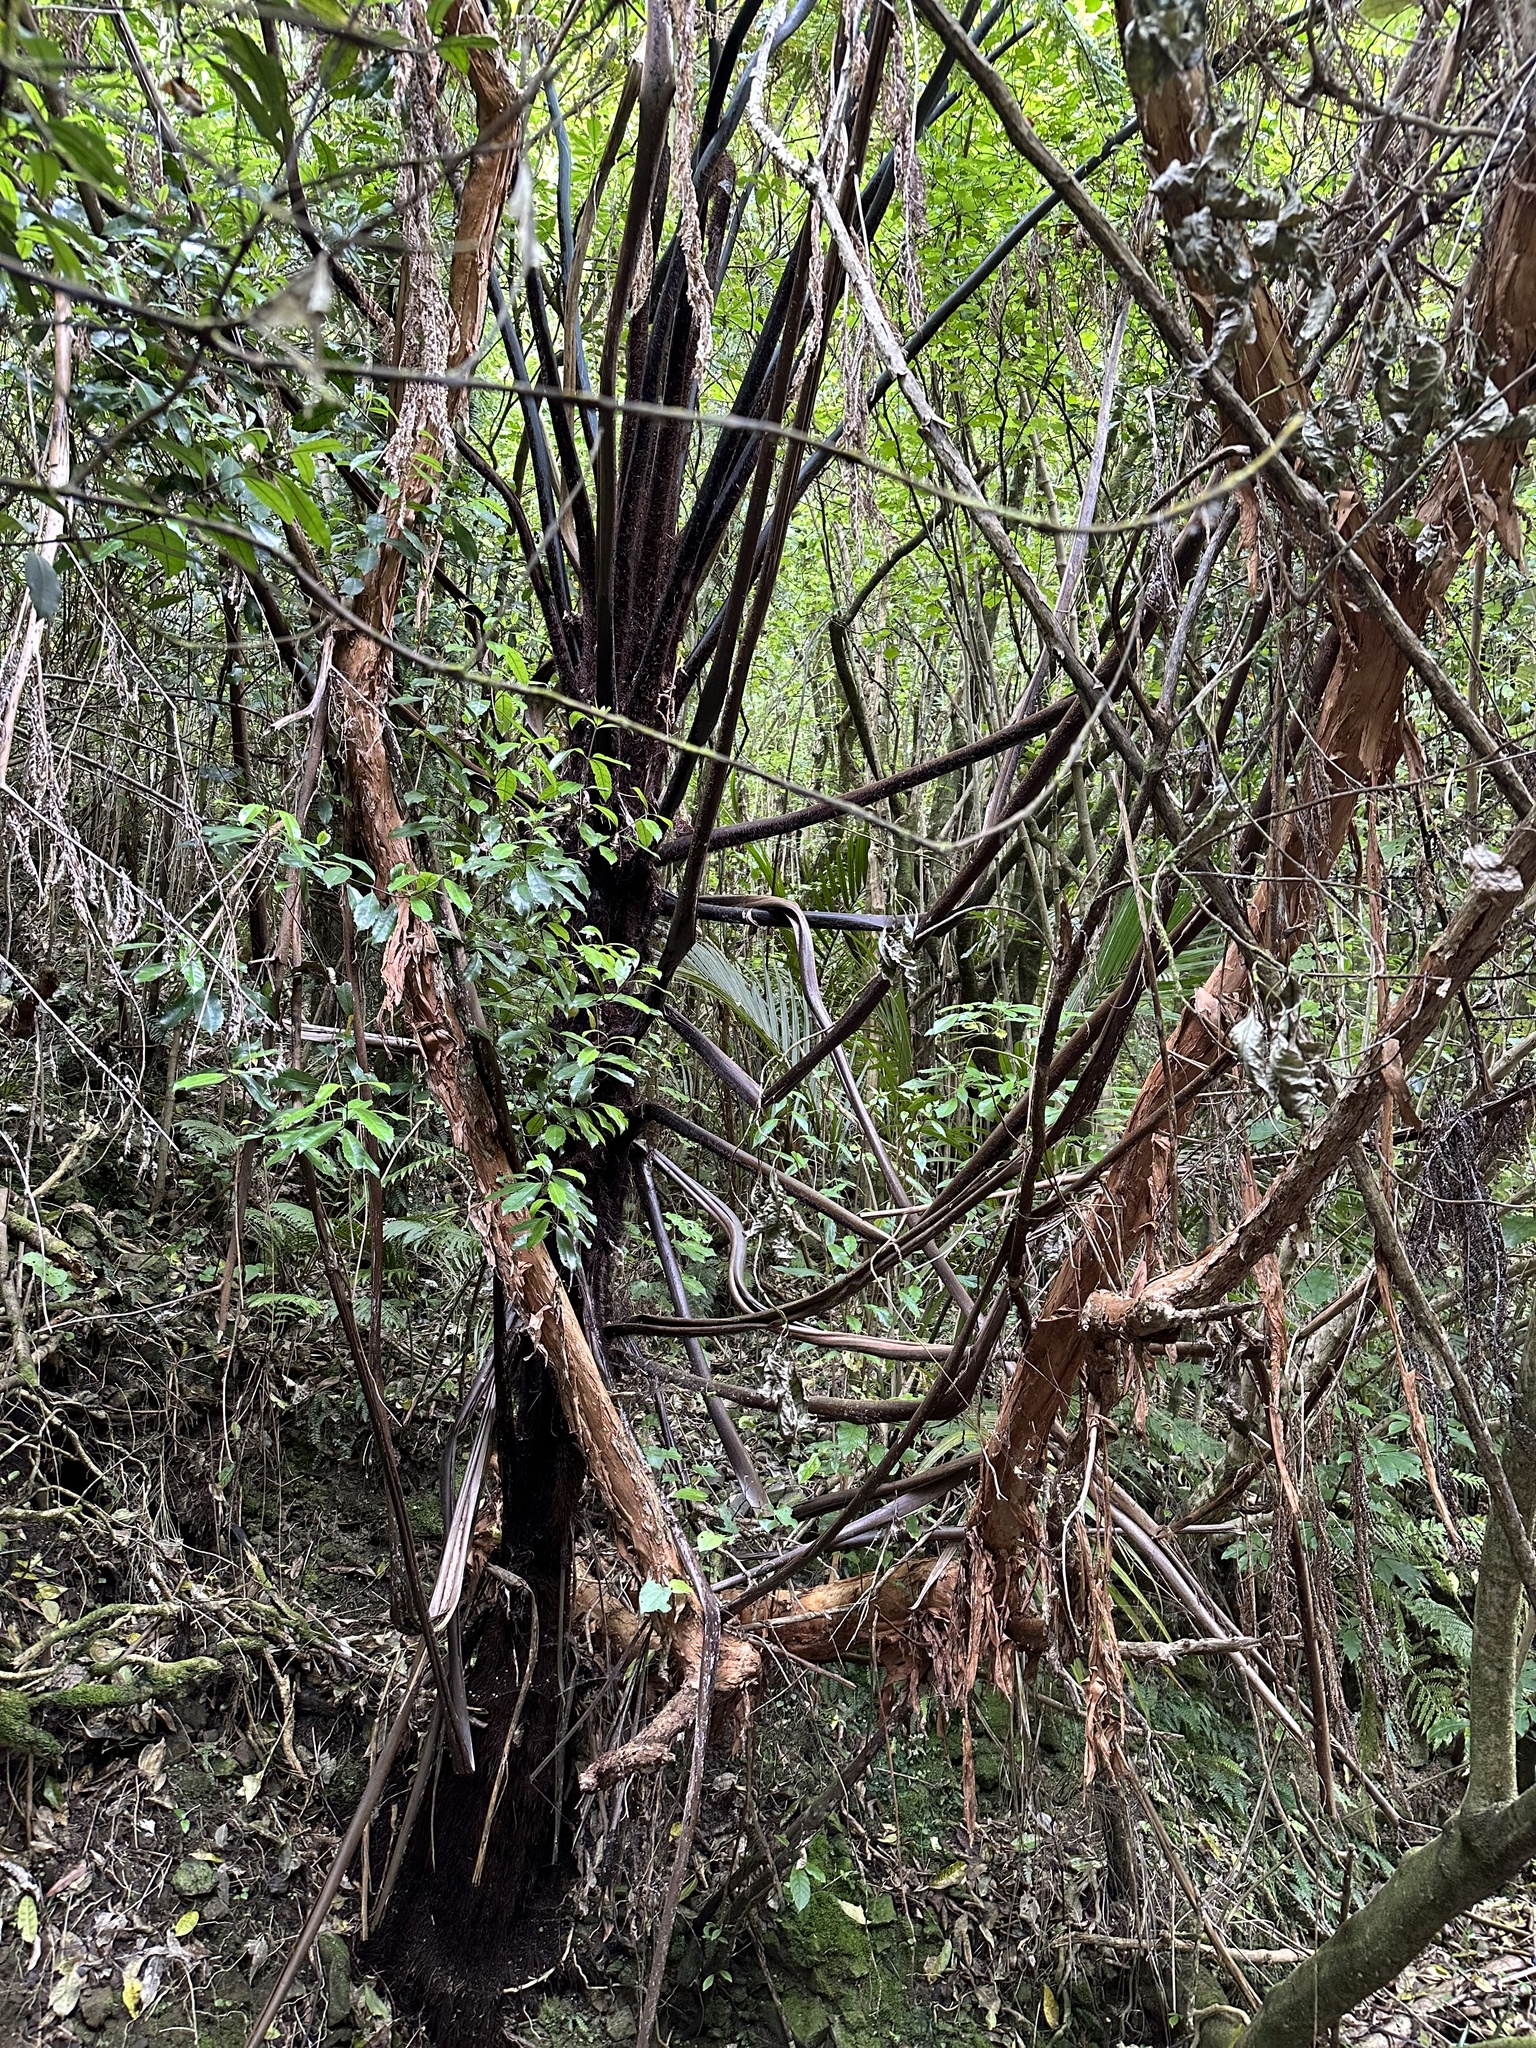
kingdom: Plantae
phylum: Tracheophyta
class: Magnoliopsida
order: Myrtales
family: Onagraceae
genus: Fuchsia
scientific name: Fuchsia excorticata
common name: Tree fuchsia
